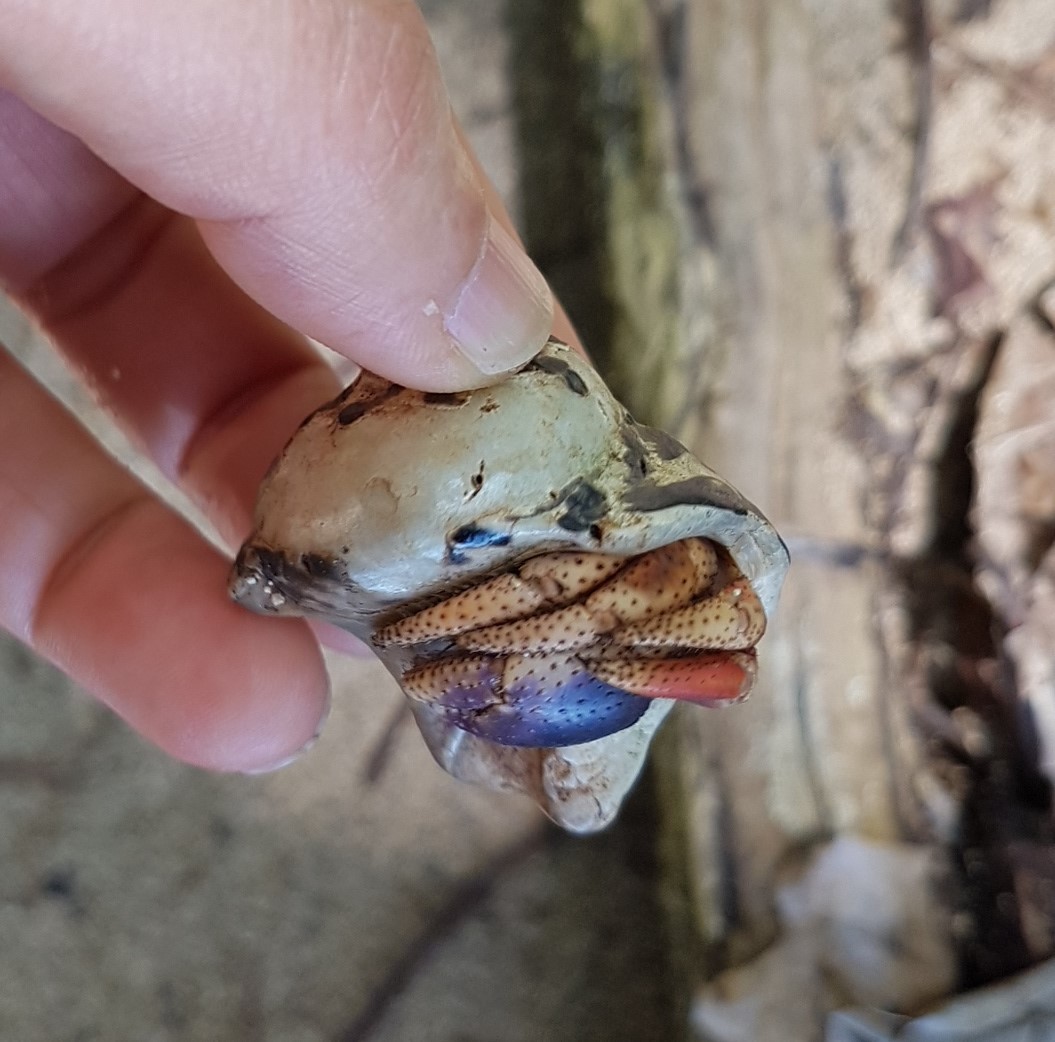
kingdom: Animalia
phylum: Mollusca
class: Gastropoda
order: Trochida
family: Tegulidae
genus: Cittarium
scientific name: Cittarium pica
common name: West indian topshell
